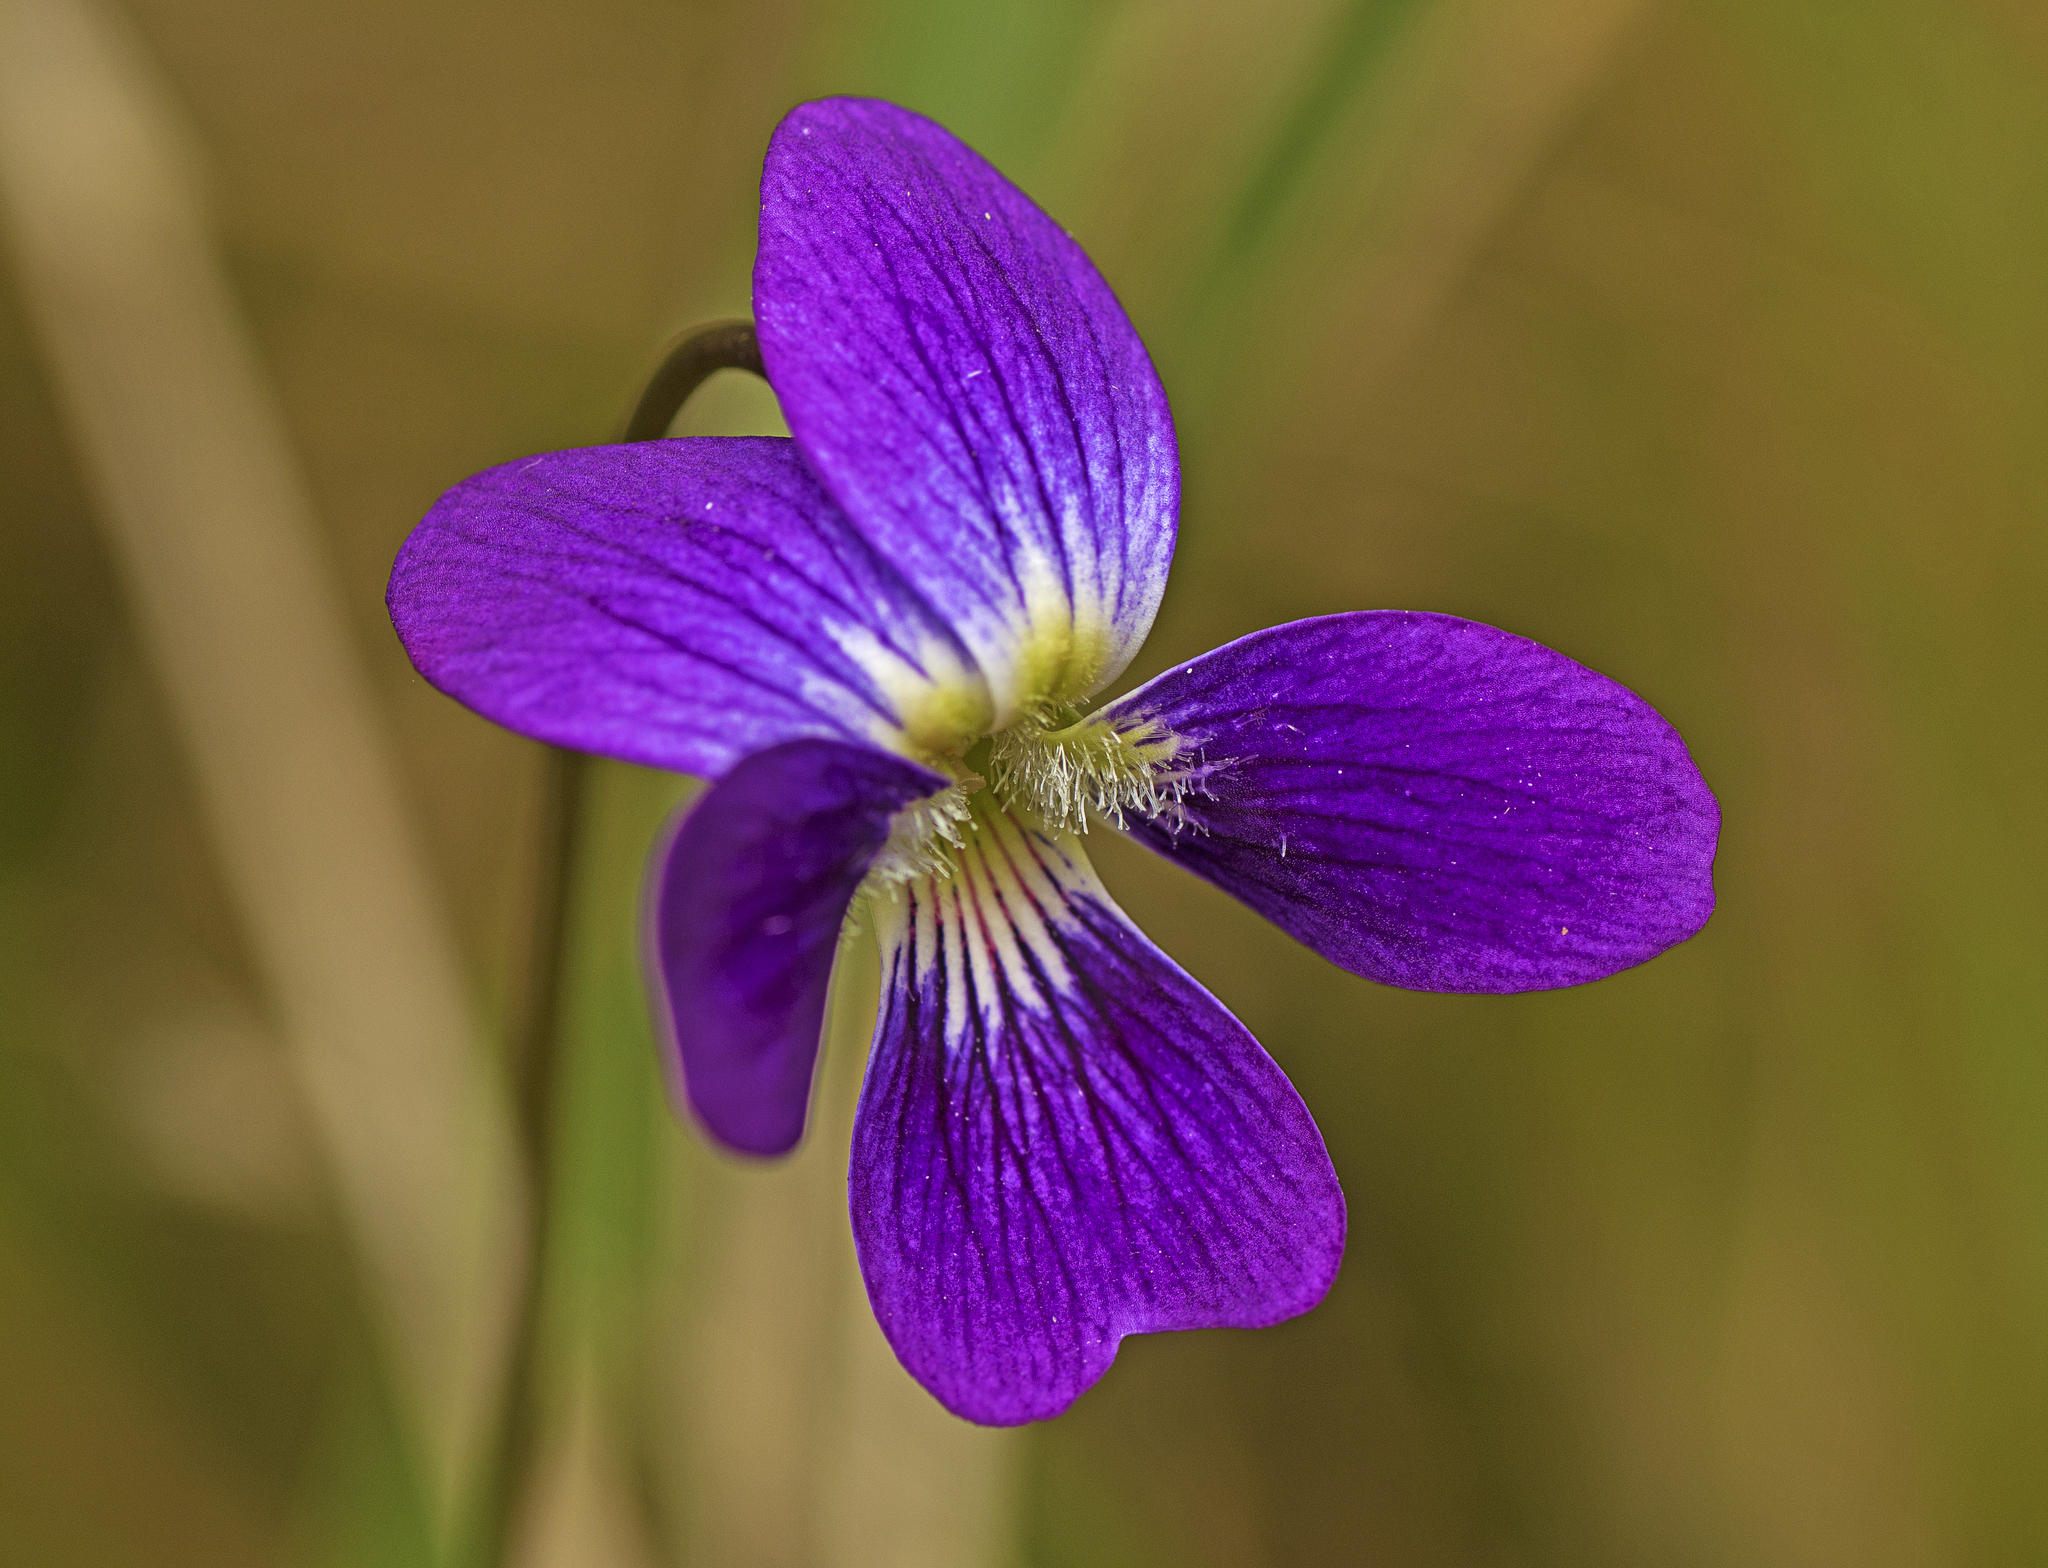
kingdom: Plantae
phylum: Tracheophyta
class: Magnoliopsida
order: Malpighiales
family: Violaceae
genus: Viola
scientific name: Viola betonicifolia
